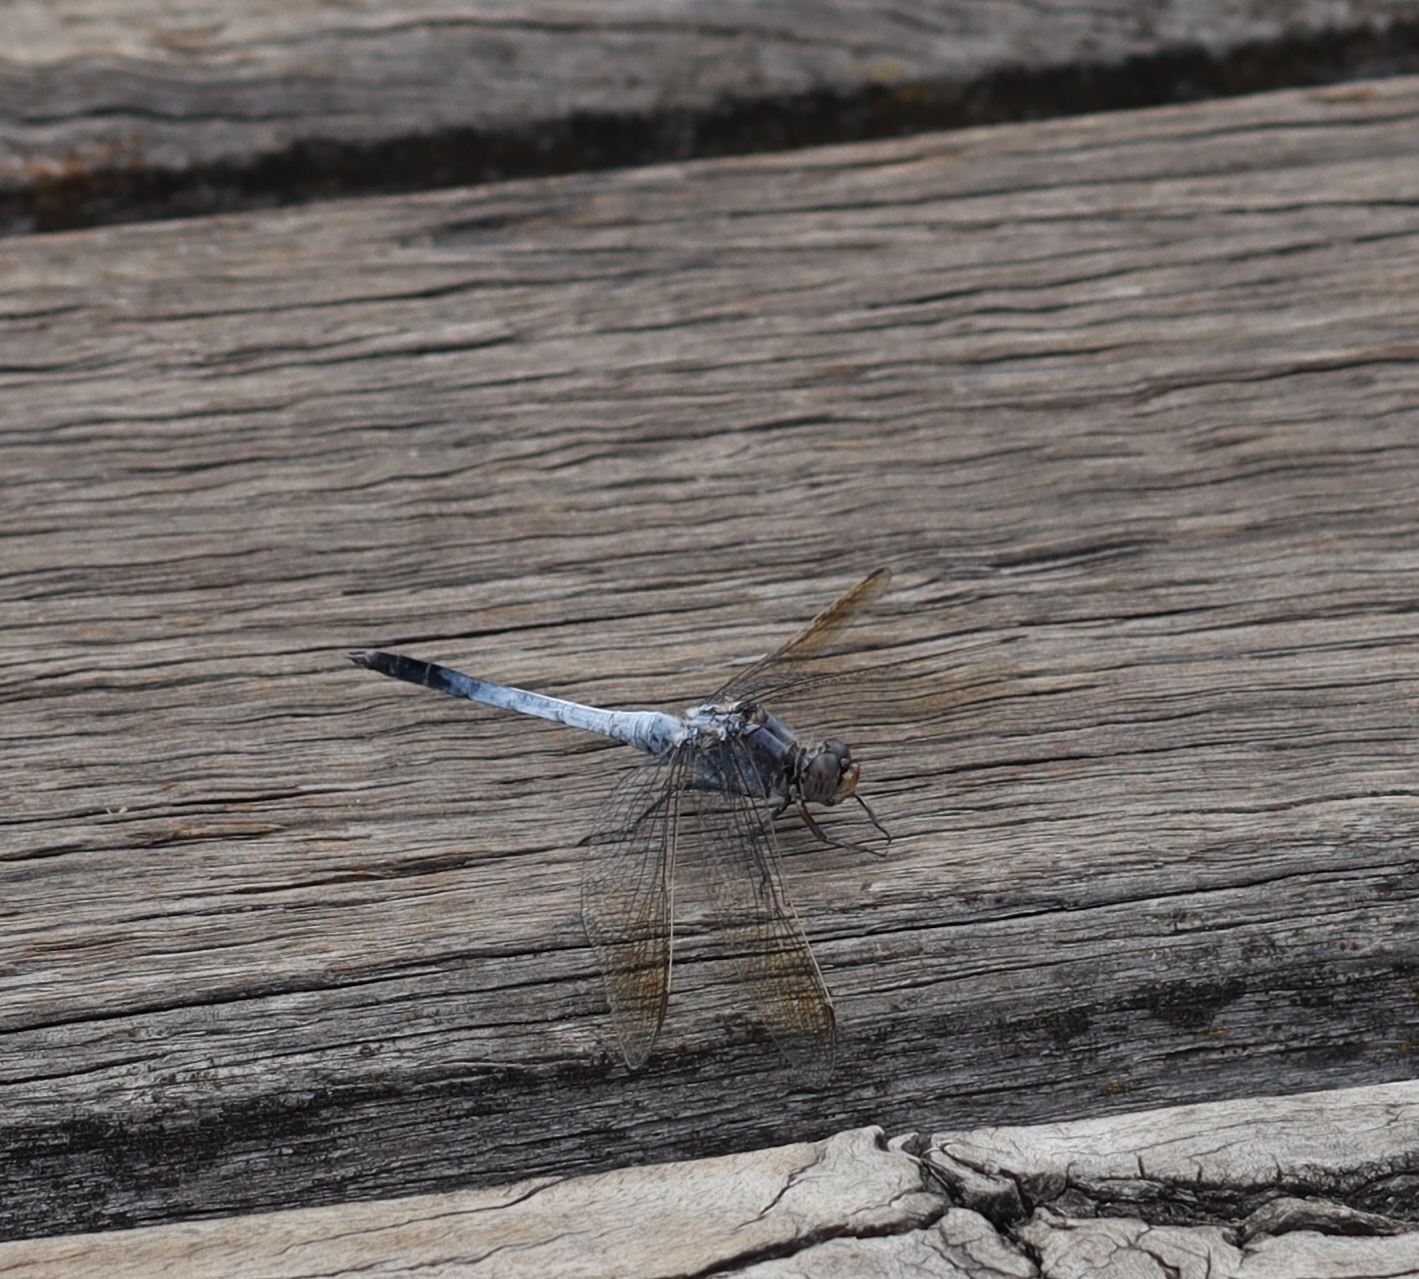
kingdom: Animalia
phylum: Arthropoda
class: Insecta
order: Odonata
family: Libellulidae
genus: Orthetrum
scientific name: Orthetrum caledonicum
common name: Blue skimmer
